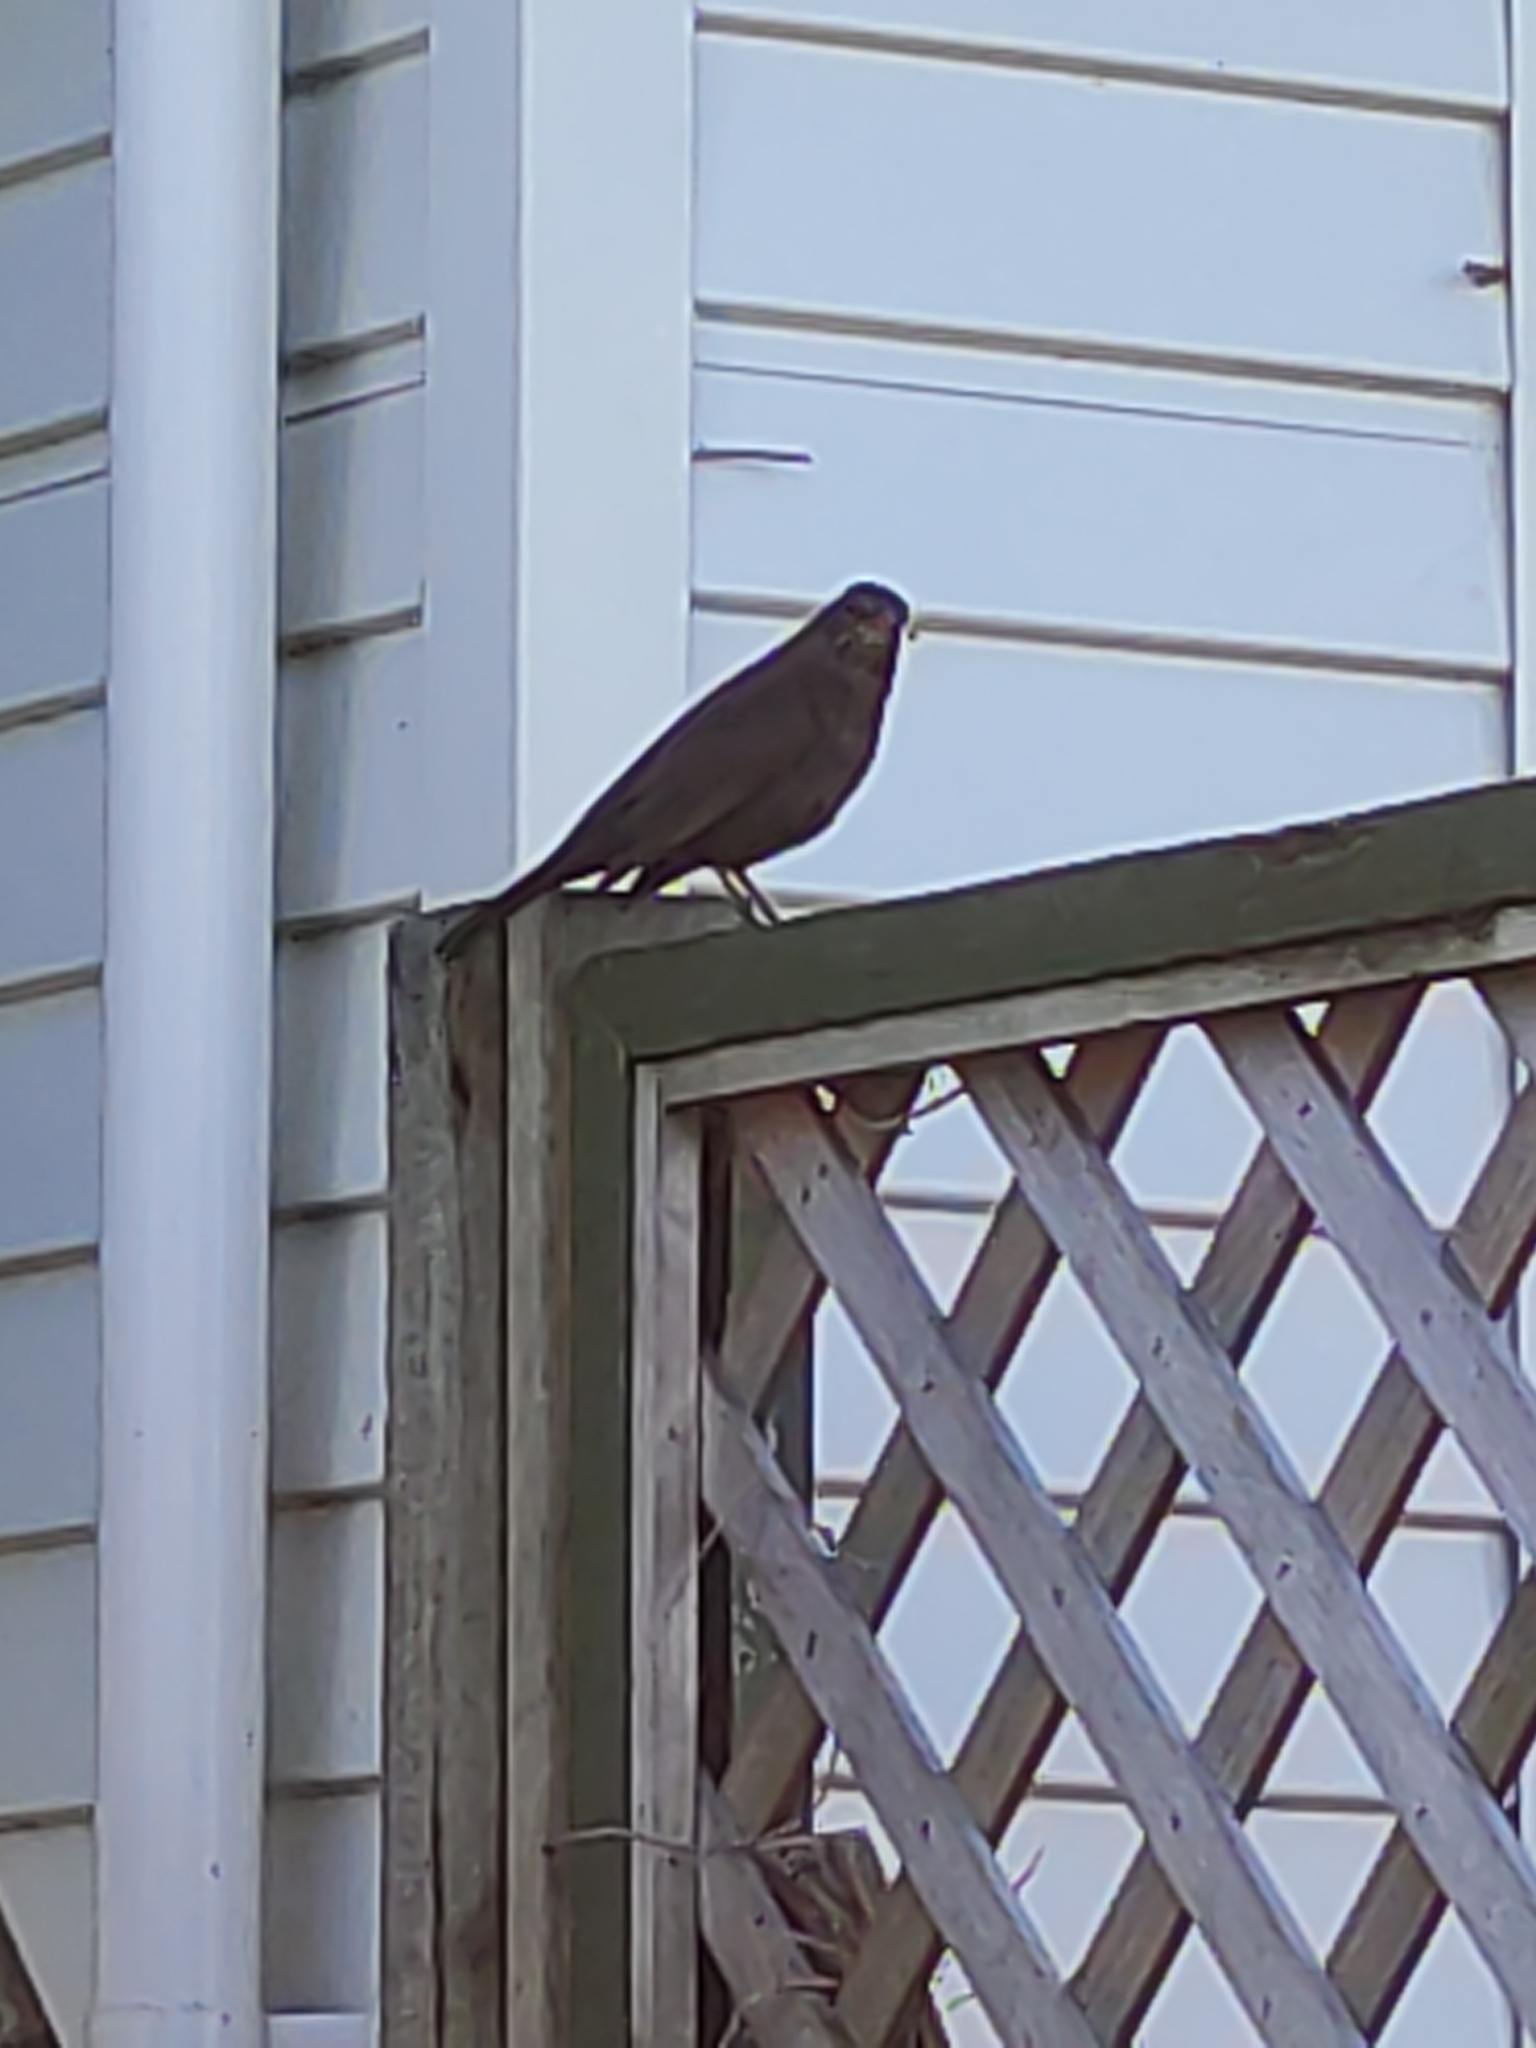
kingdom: Animalia
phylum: Chordata
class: Aves
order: Passeriformes
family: Turdidae
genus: Turdus
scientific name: Turdus merula
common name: Common blackbird
